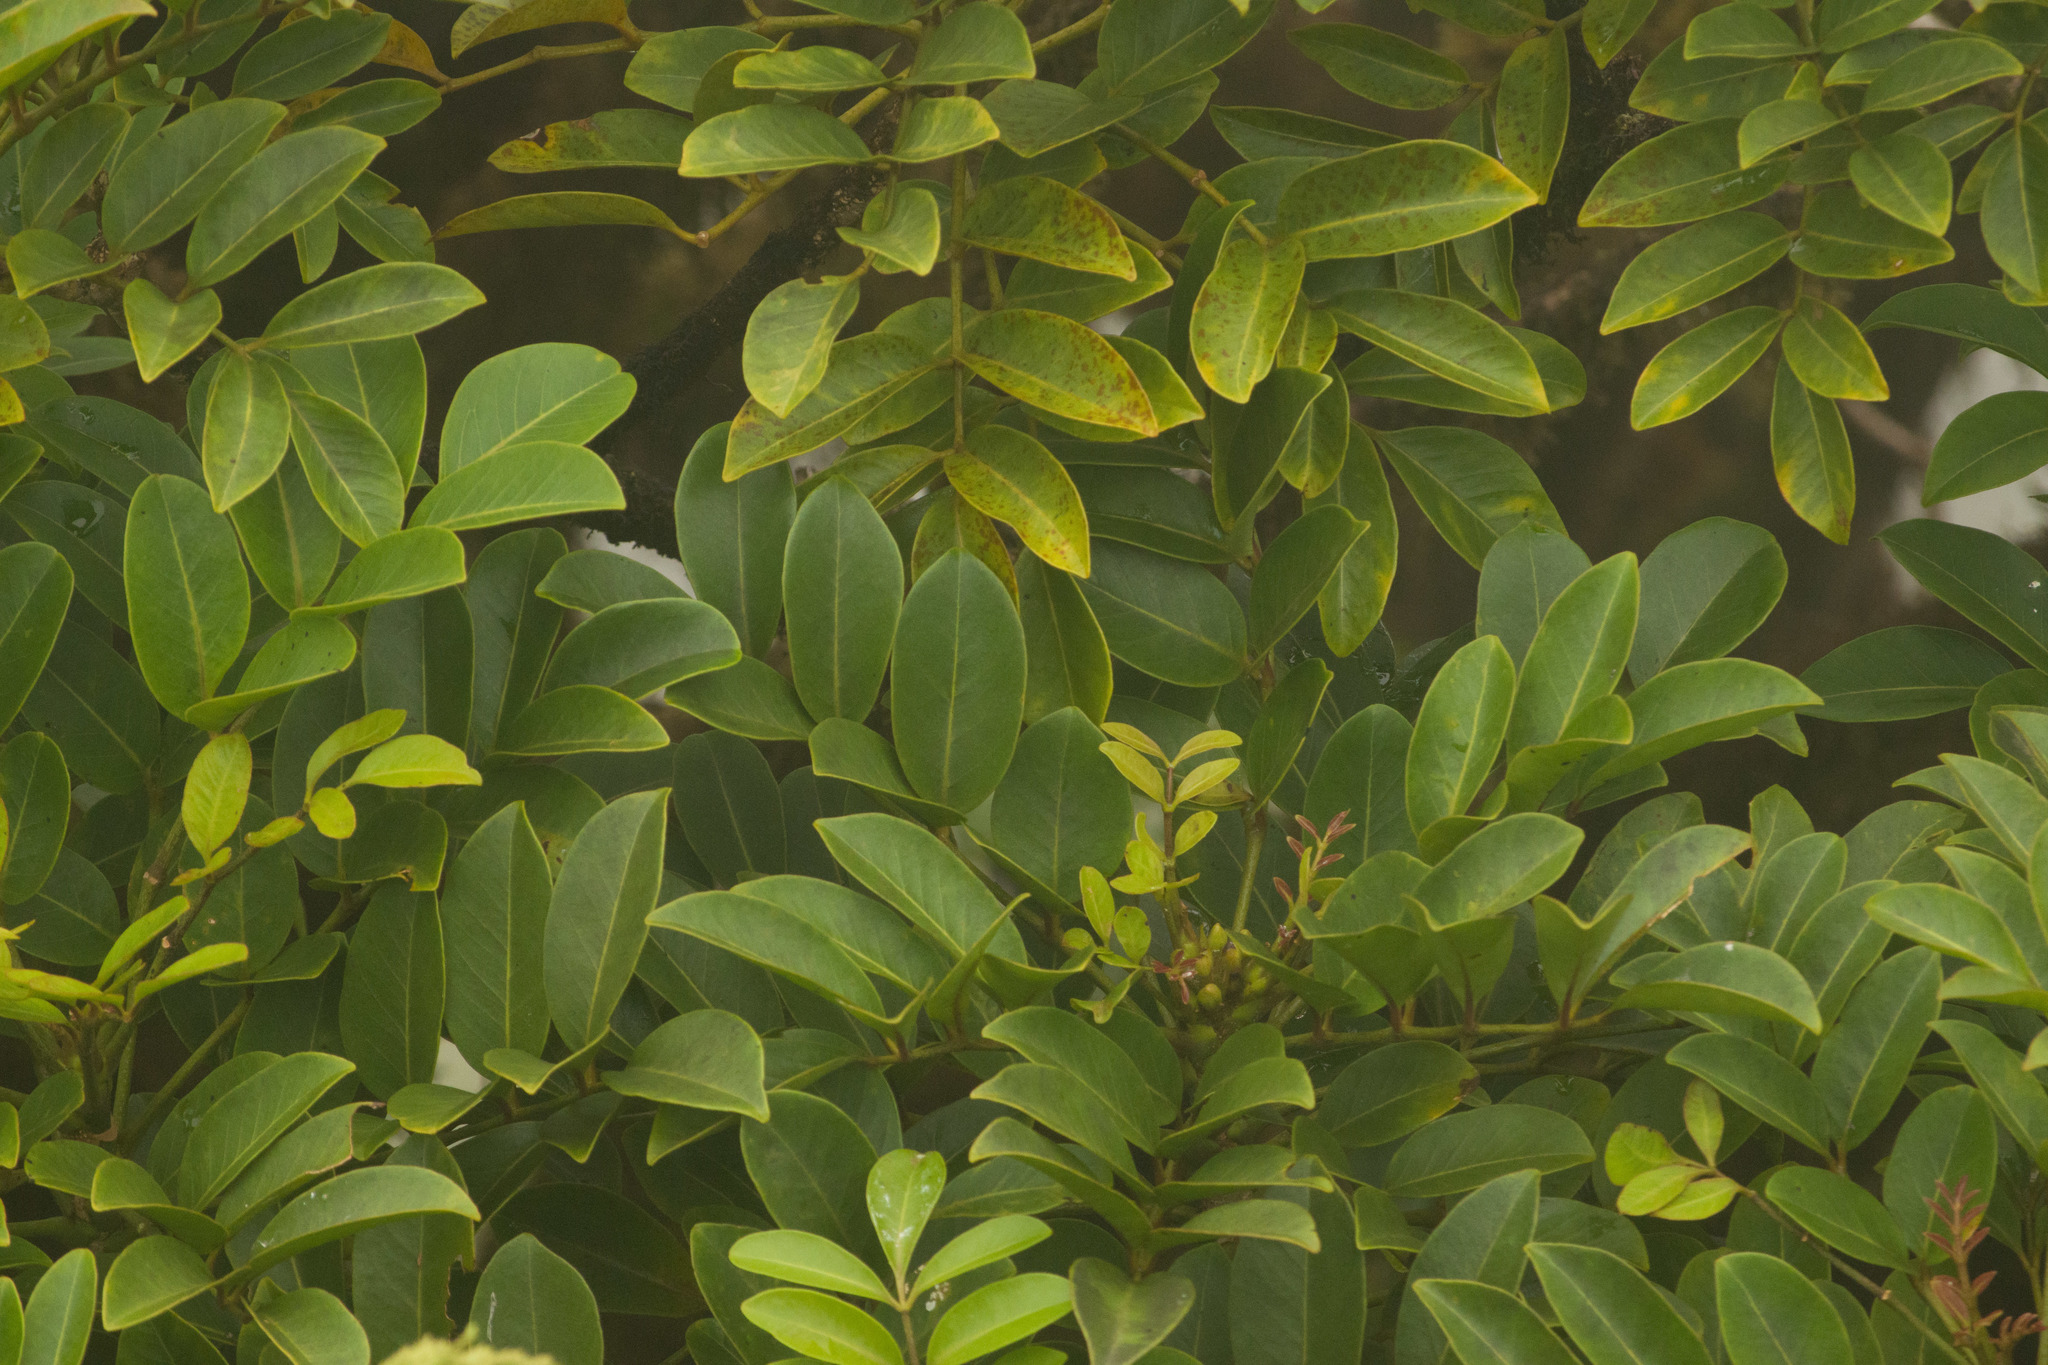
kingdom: Plantae
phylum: Tracheophyta
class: Magnoliopsida
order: Apiales
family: Araliaceae
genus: Polyscias
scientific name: Polyscias oahuensis
